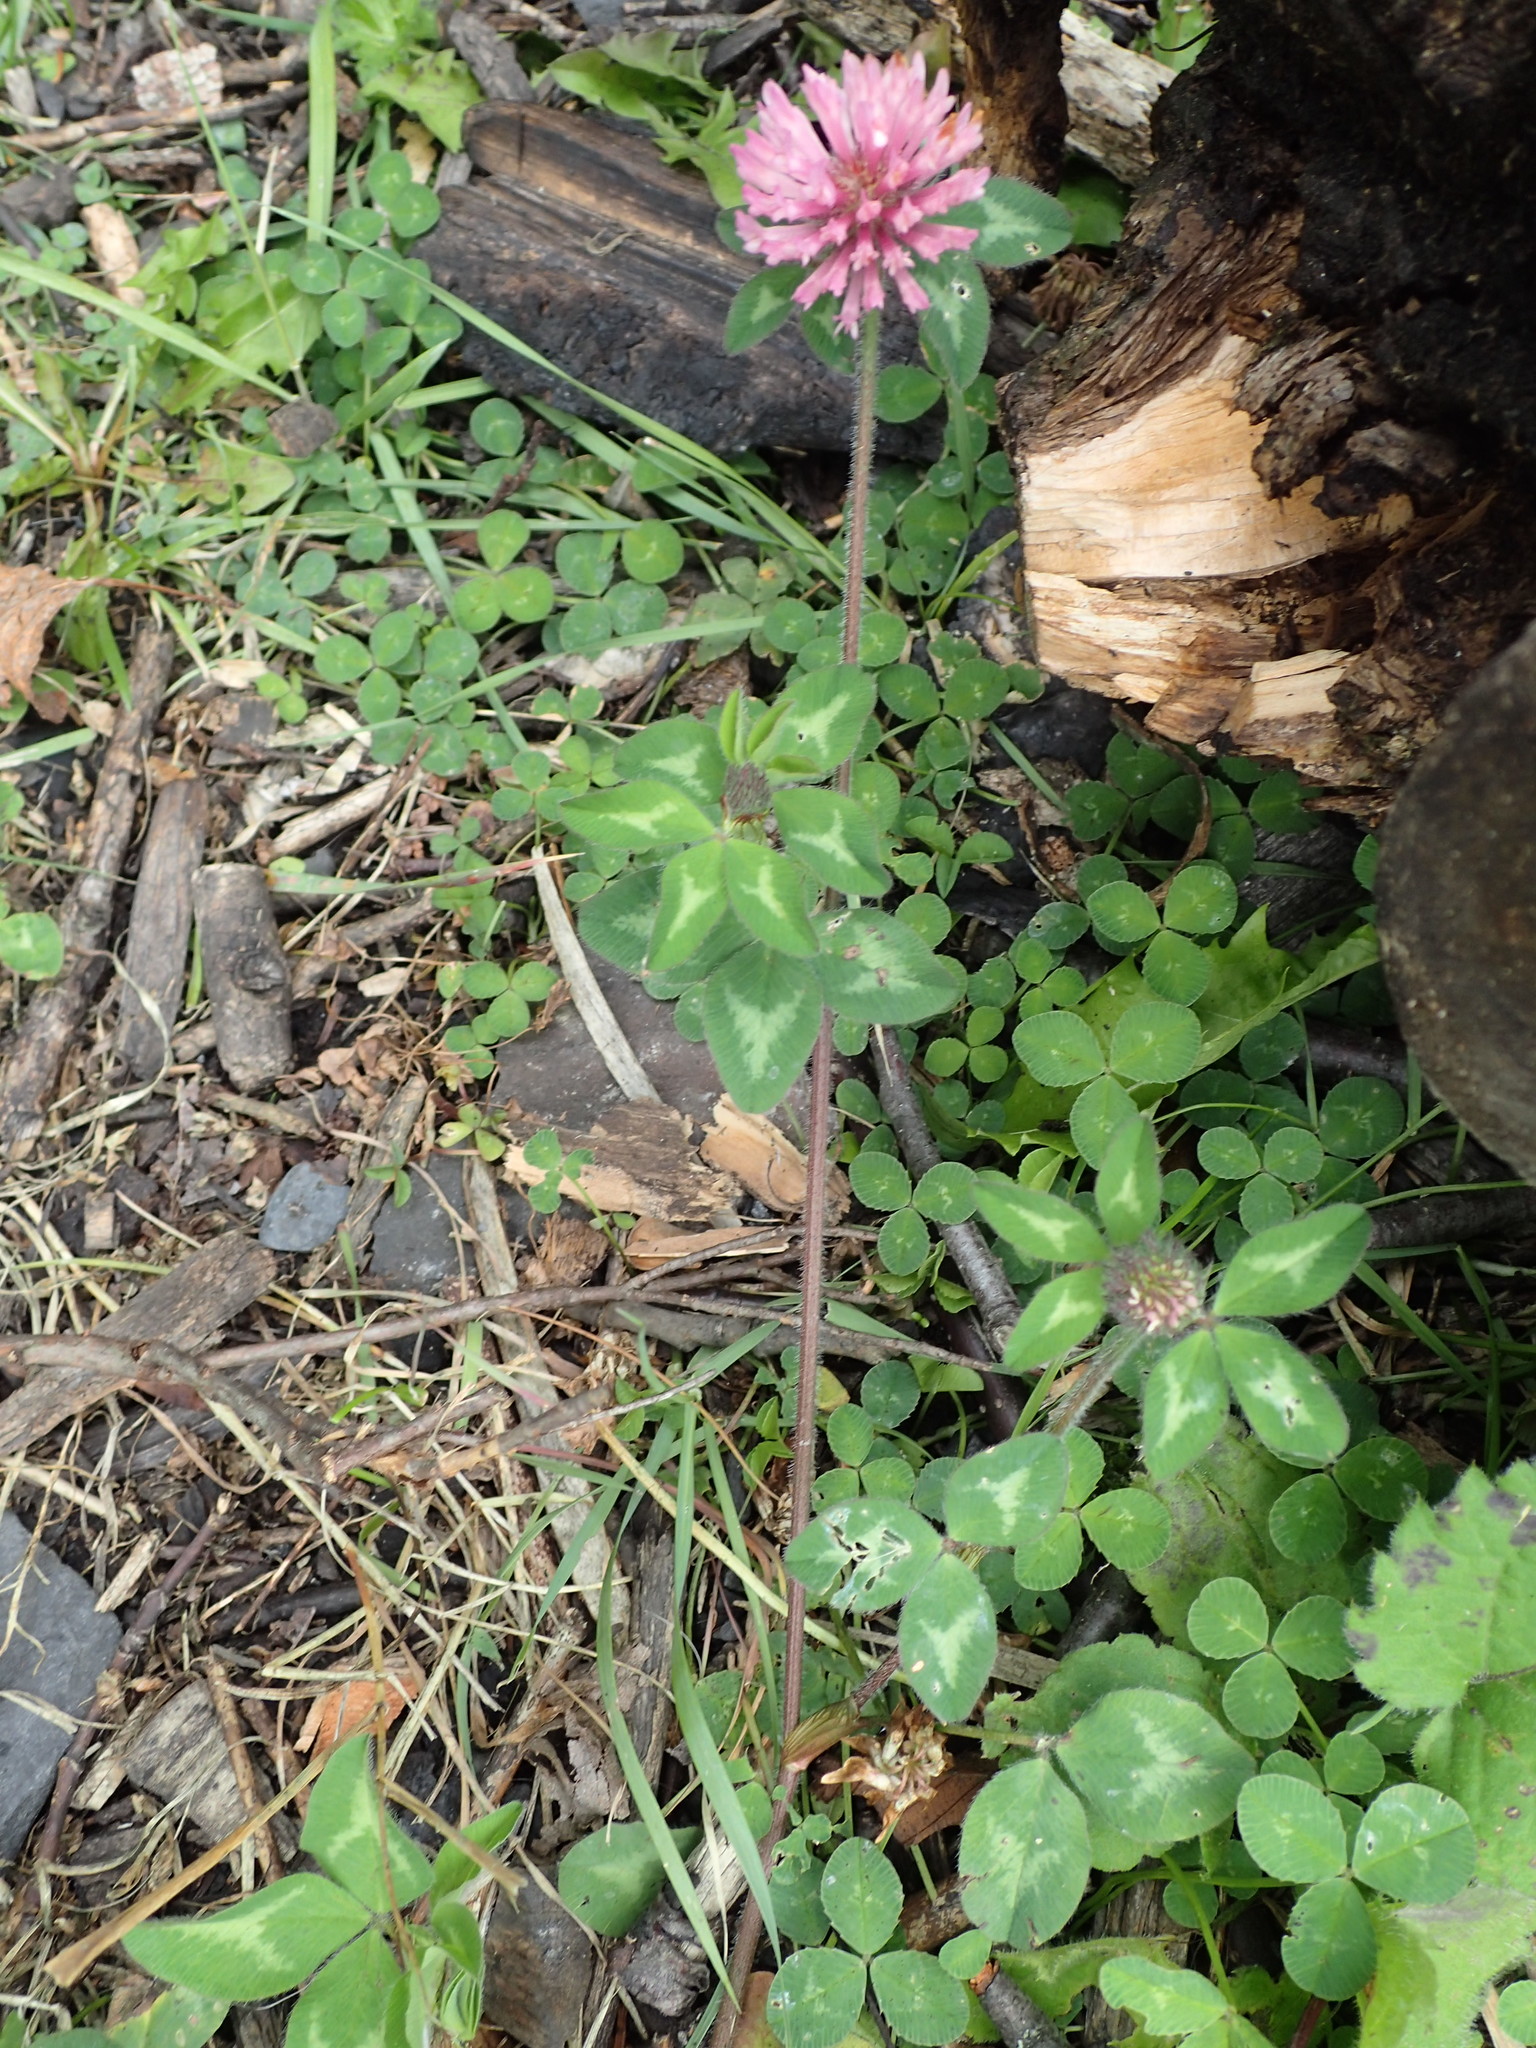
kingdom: Plantae
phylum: Tracheophyta
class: Magnoliopsida
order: Fabales
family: Fabaceae
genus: Trifolium
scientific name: Trifolium pratense
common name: Red clover
